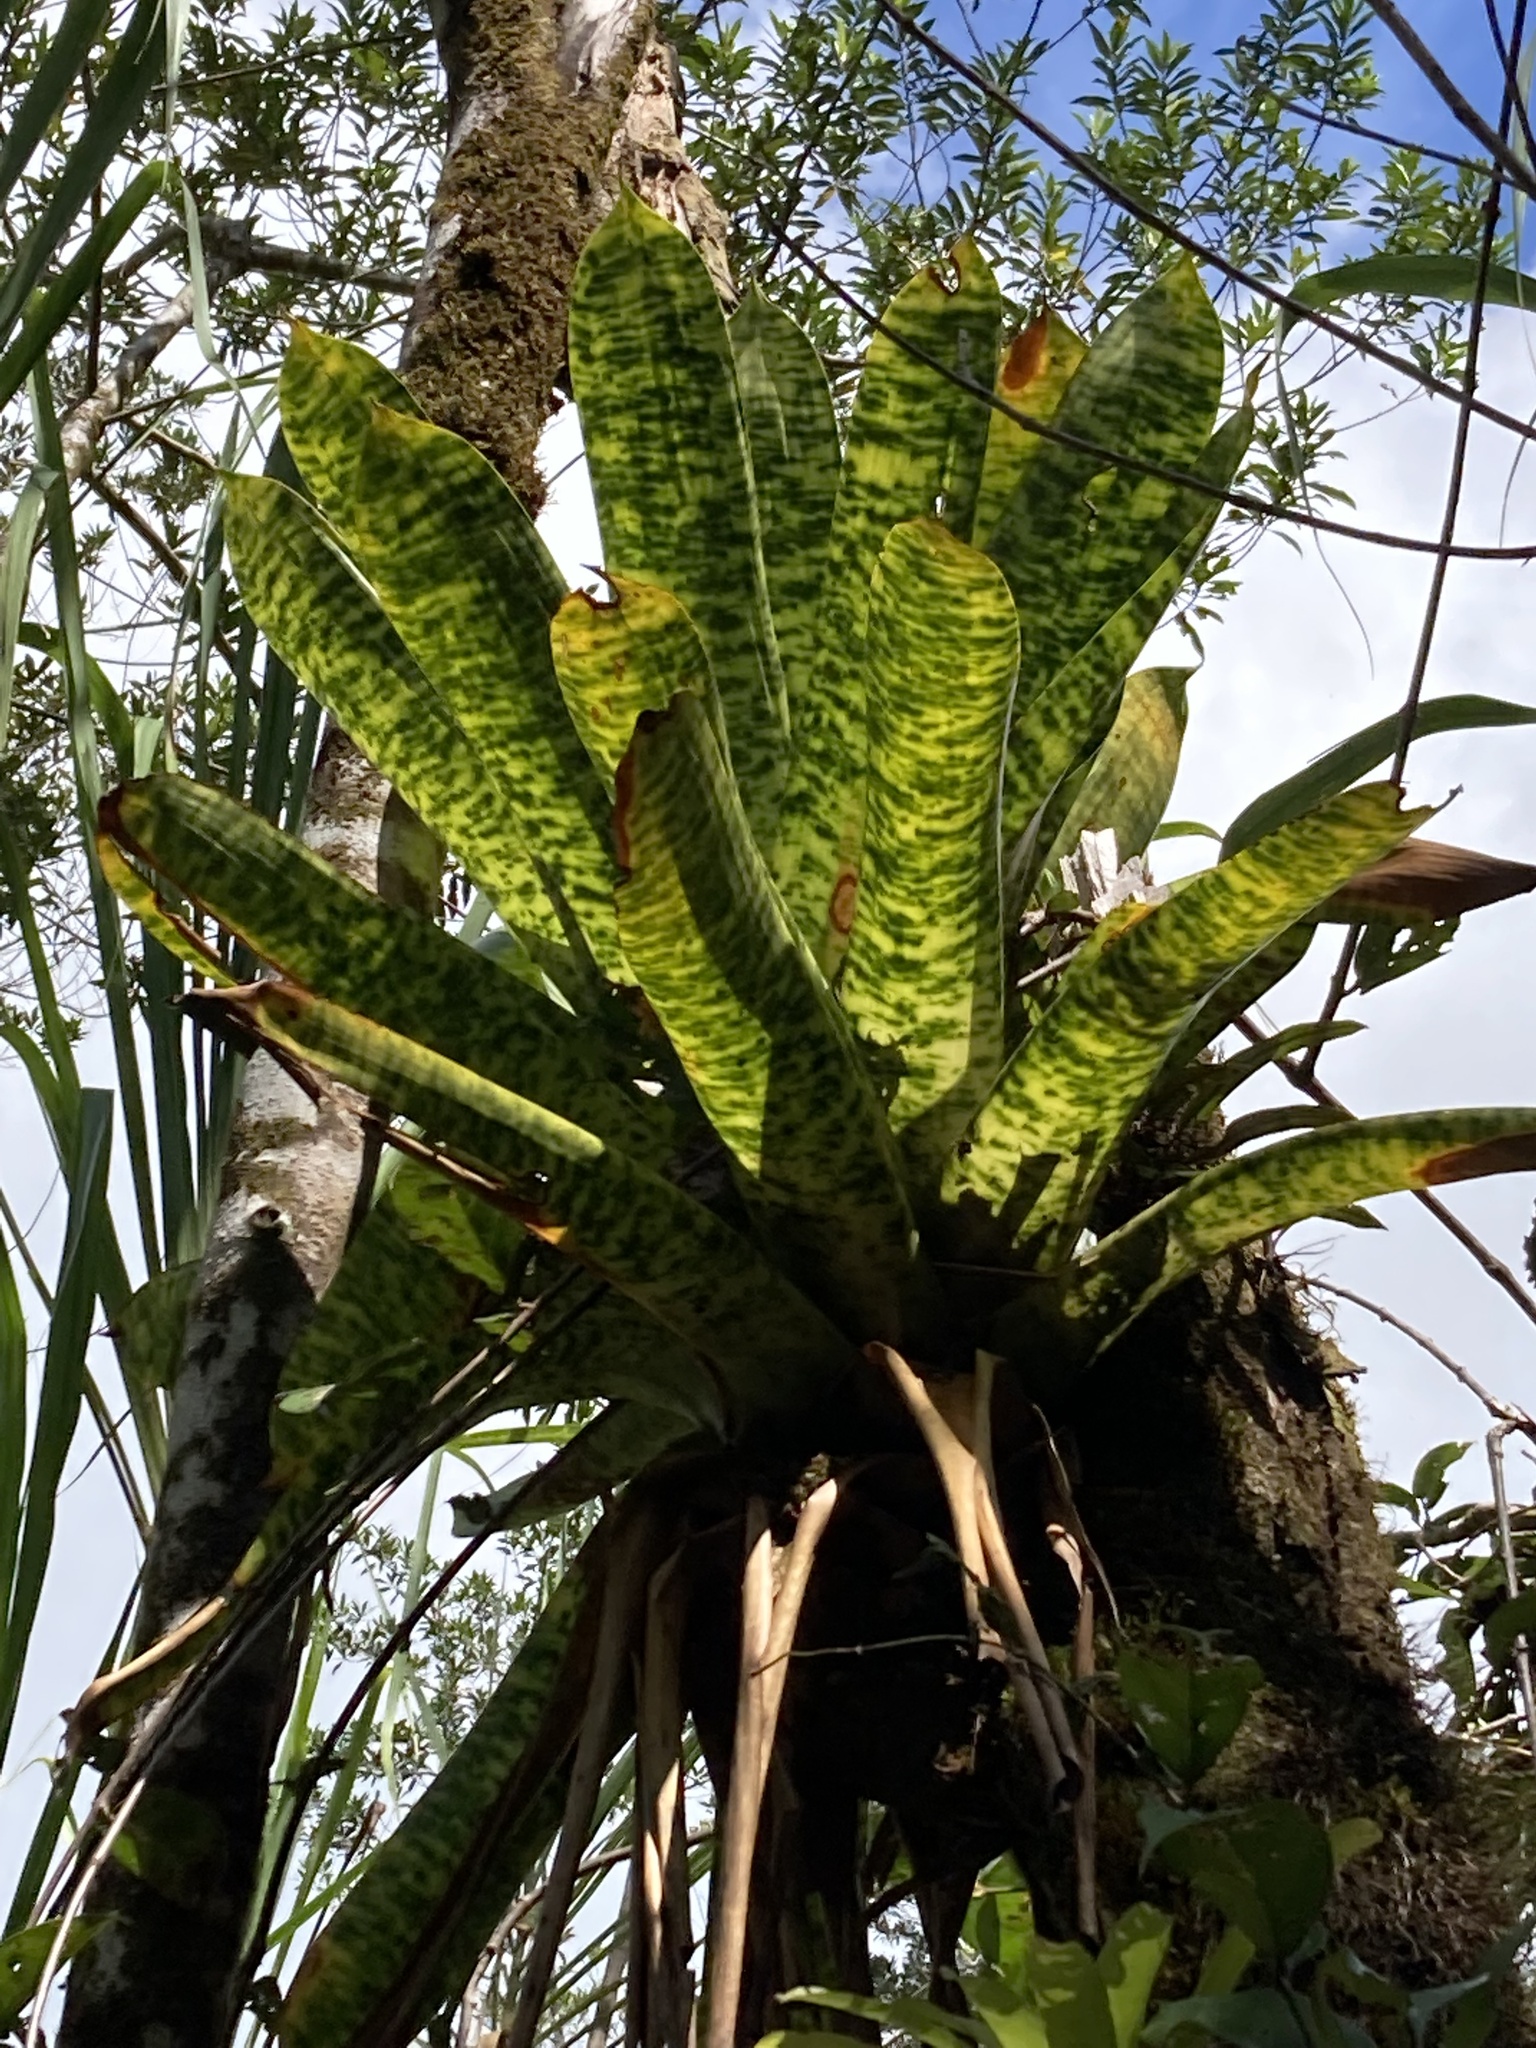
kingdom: Plantae
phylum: Tracheophyta
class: Liliopsida
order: Poales
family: Bromeliaceae
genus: Werauhia
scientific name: Werauhia kupperiana
